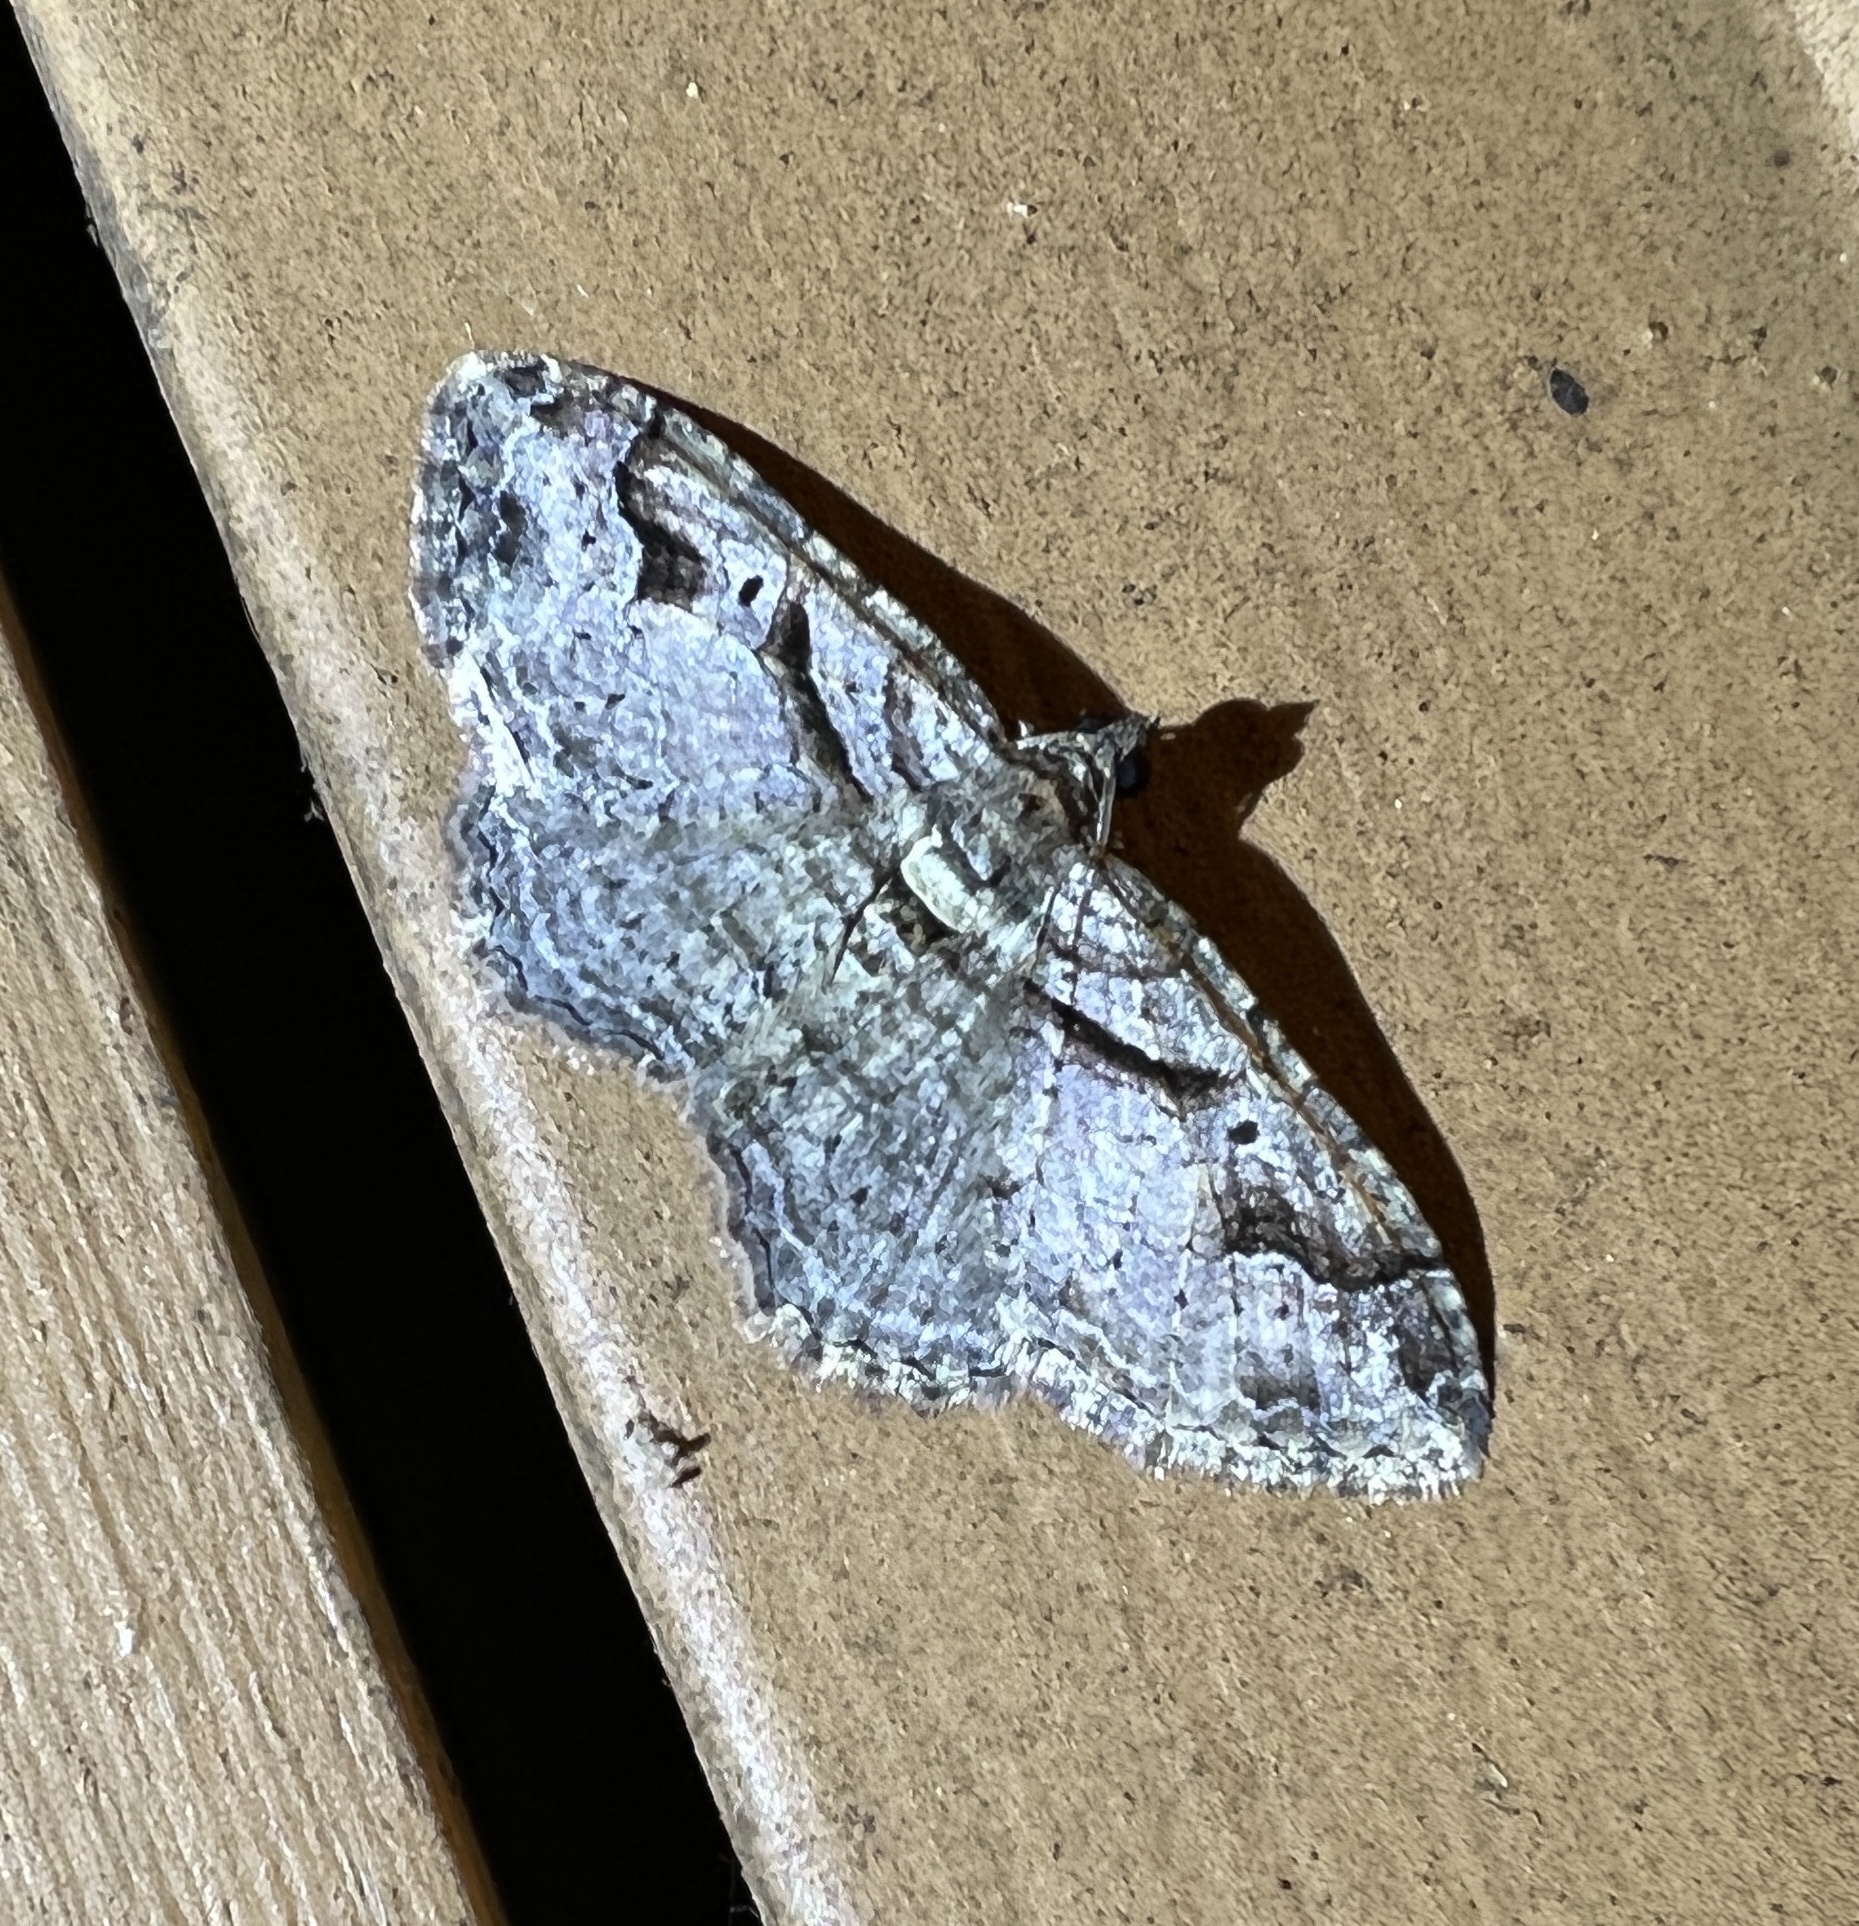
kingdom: Animalia
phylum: Arthropoda
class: Insecta
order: Lepidoptera
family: Geometridae
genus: Costaconvexa
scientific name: Costaconvexa centrostrigaria
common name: Bent-line carpet
